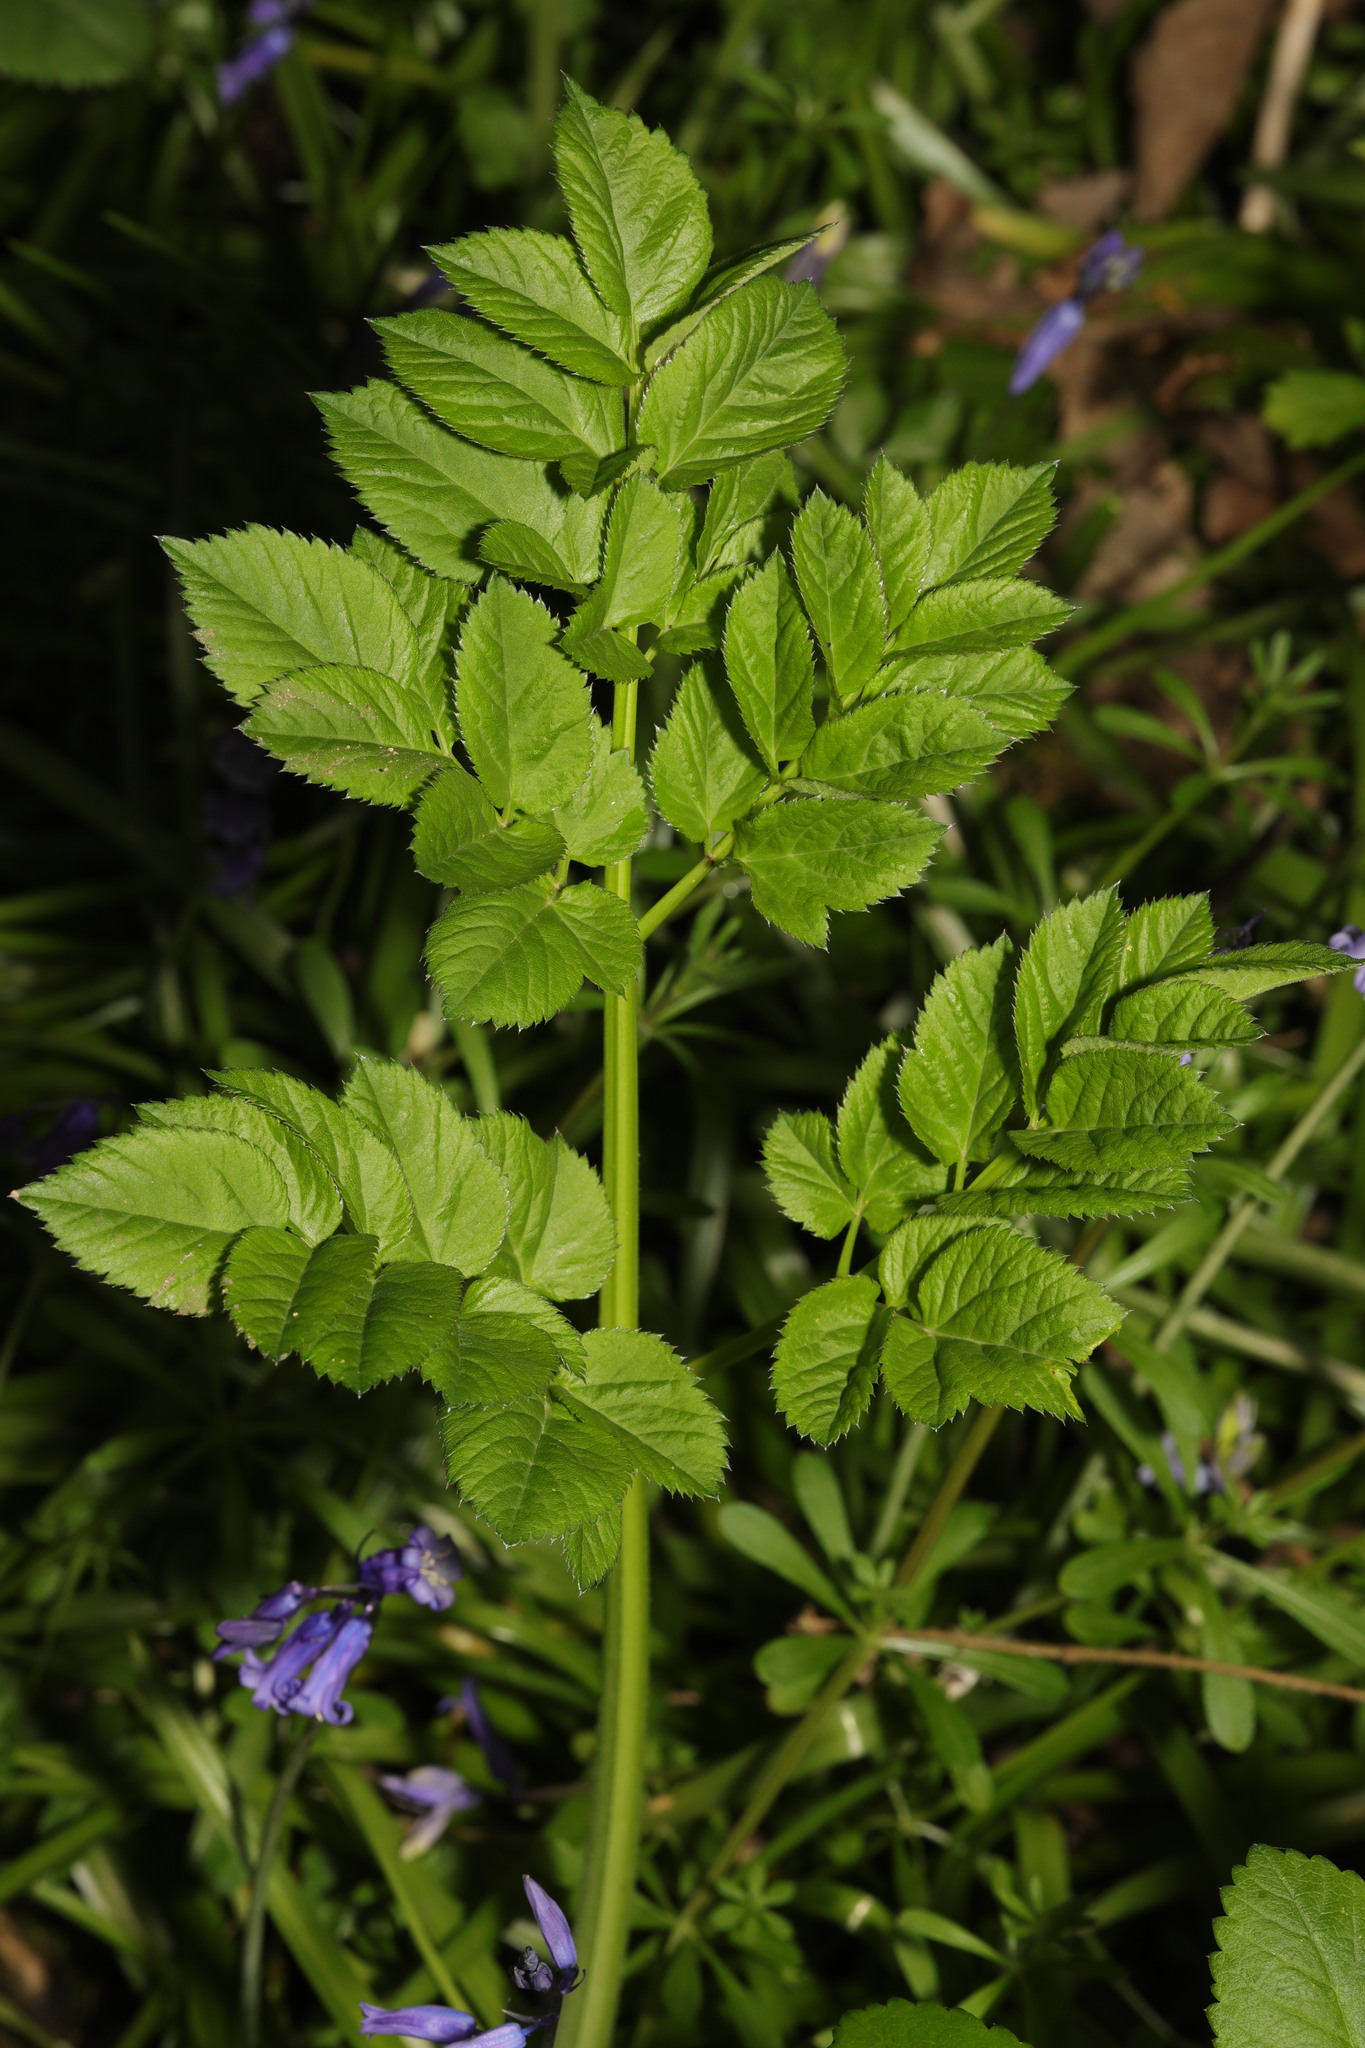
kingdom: Plantae
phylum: Tracheophyta
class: Magnoliopsida
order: Apiales
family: Apiaceae
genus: Angelica
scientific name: Angelica sylvestris
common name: Wild angelica
